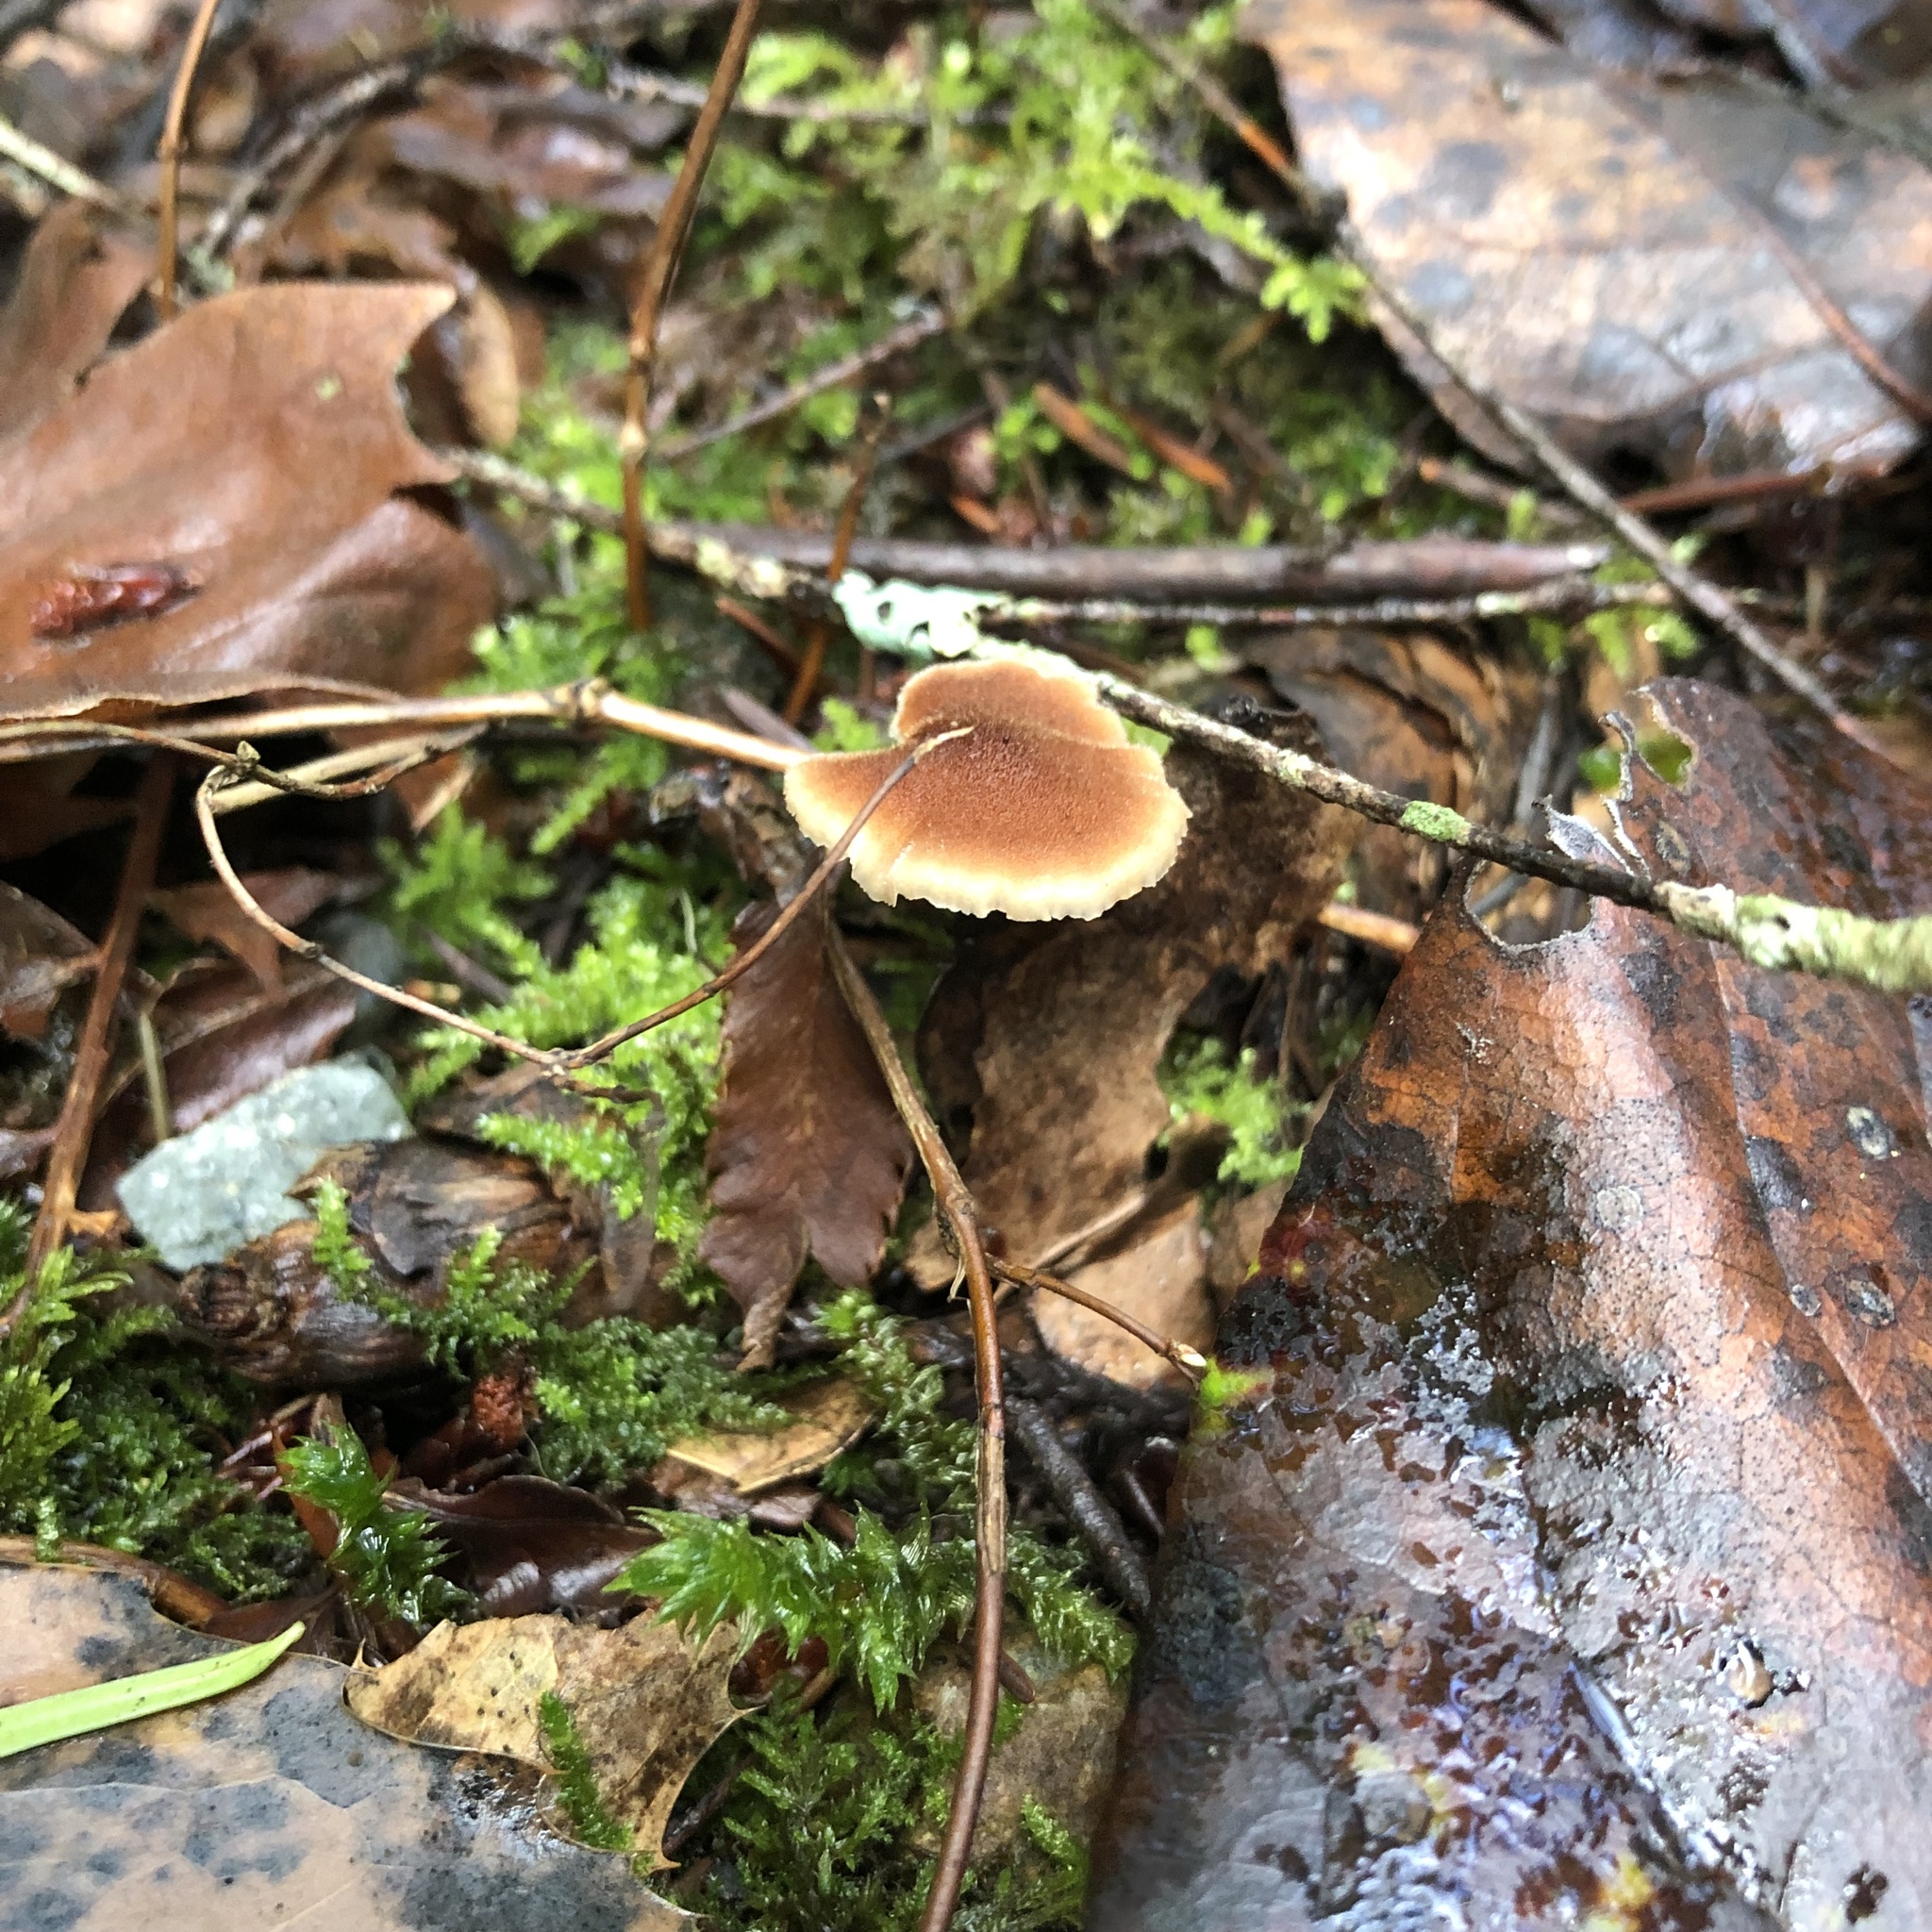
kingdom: Fungi
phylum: Basidiomycota
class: Agaricomycetes
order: Russulales
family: Auriscalpiaceae
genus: Auriscalpium
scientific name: Auriscalpium vulgare
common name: Earpick fungus
